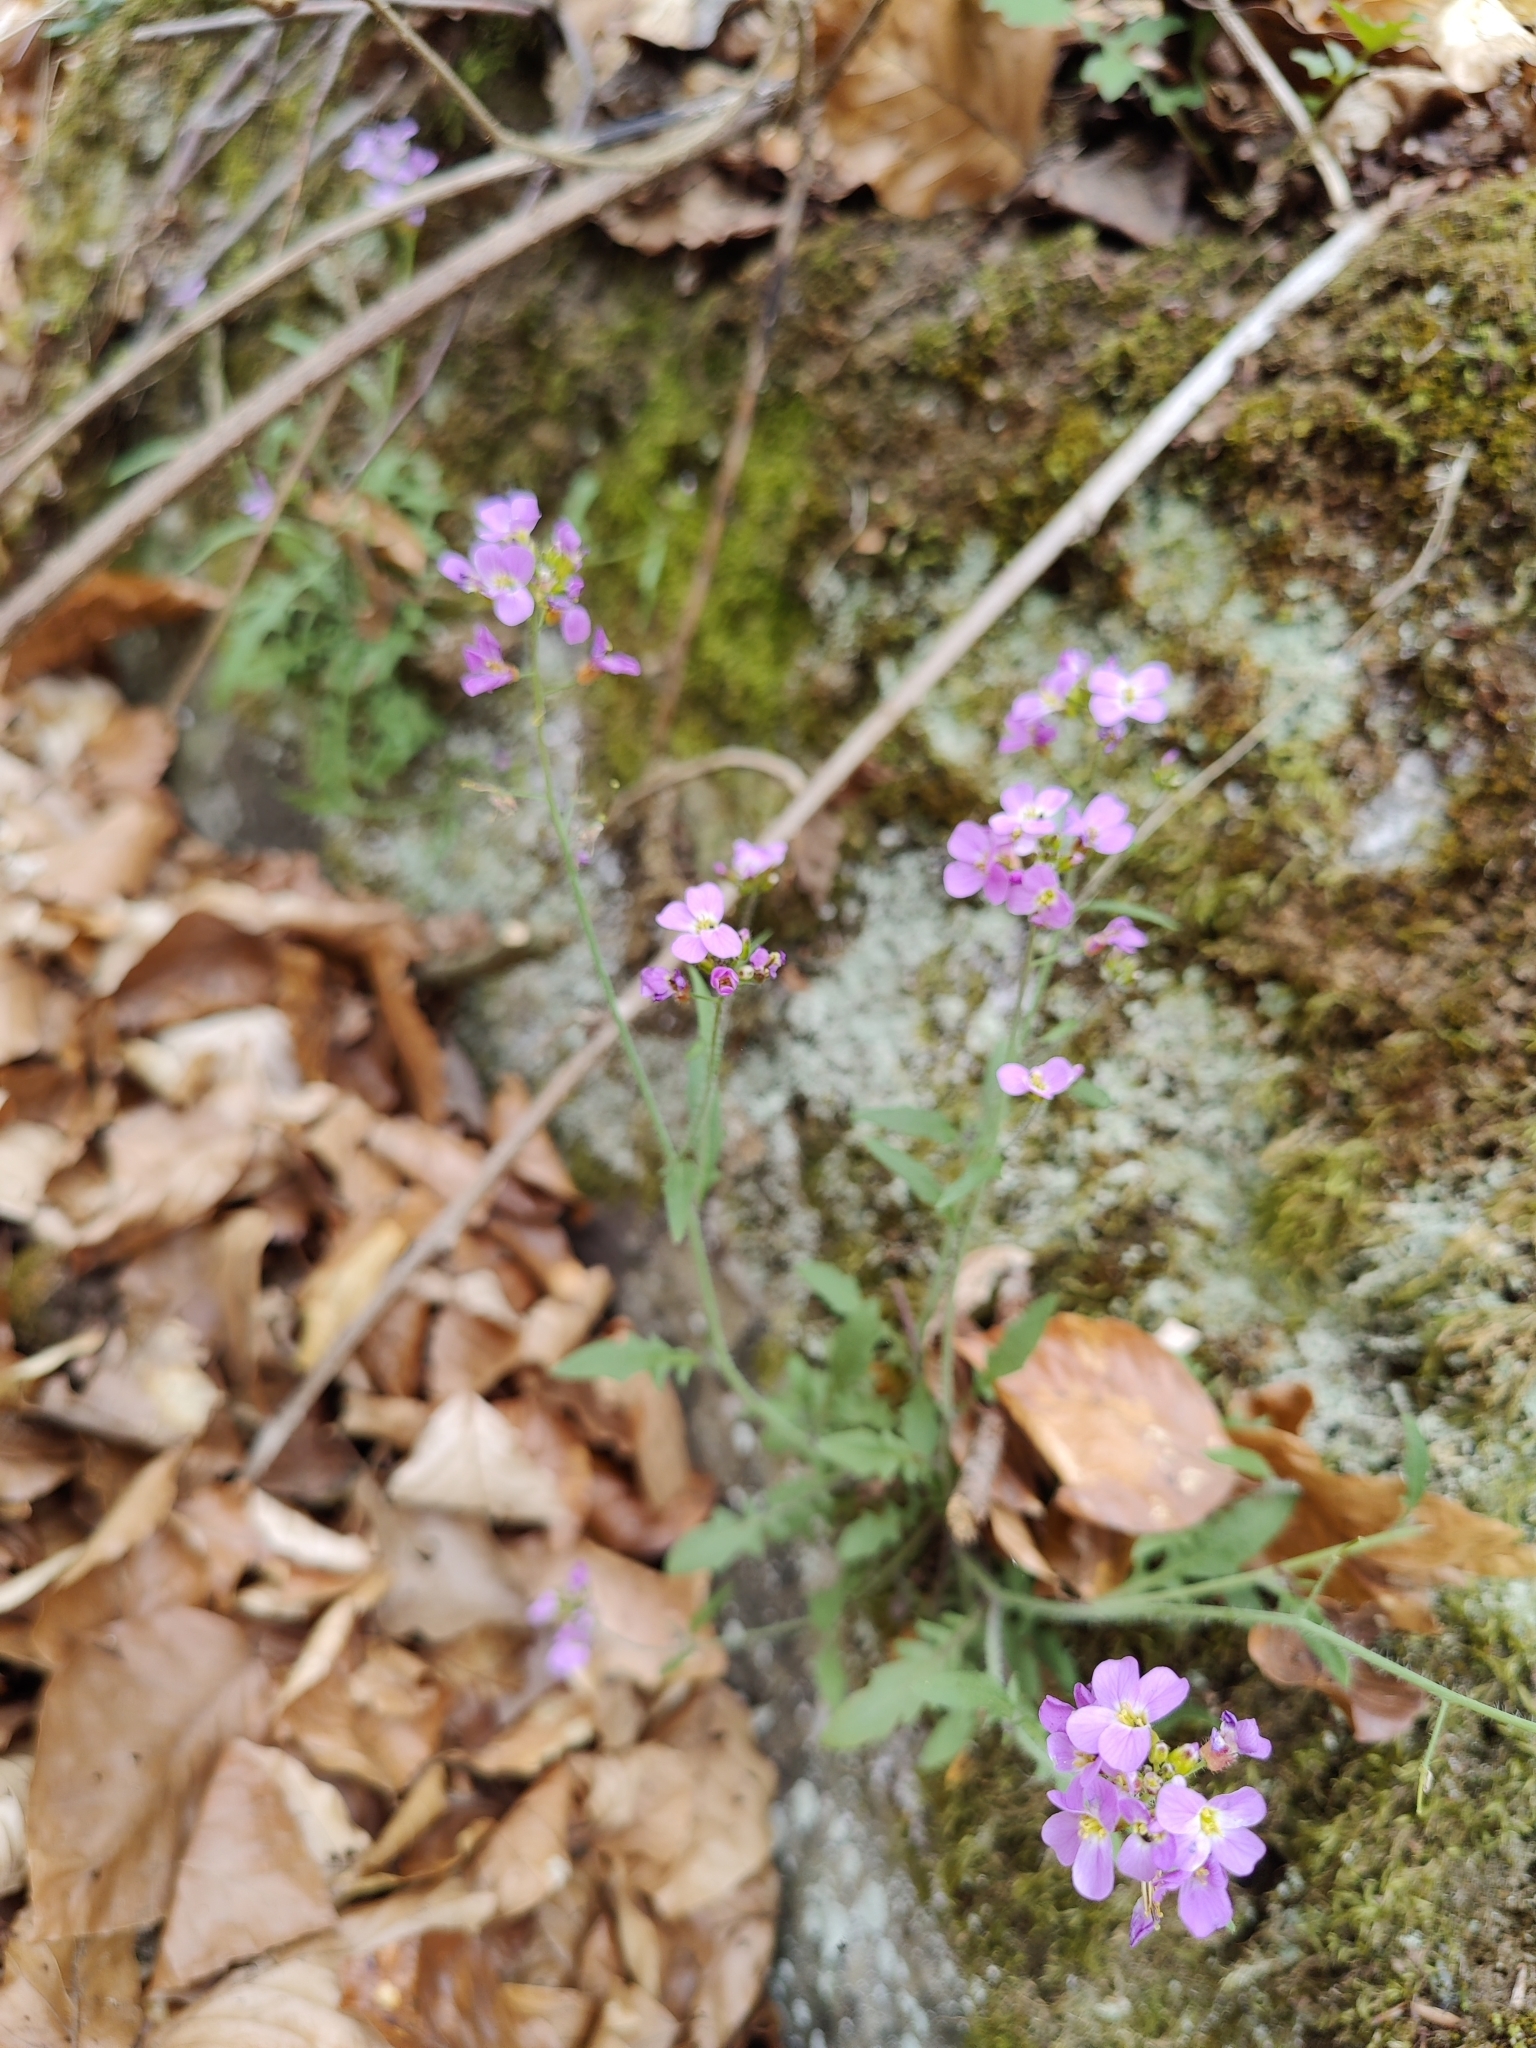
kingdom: Plantae
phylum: Tracheophyta
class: Magnoliopsida
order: Brassicales
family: Brassicaceae
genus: Arabidopsis
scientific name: Arabidopsis arenosa
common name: Sand rock-cress
